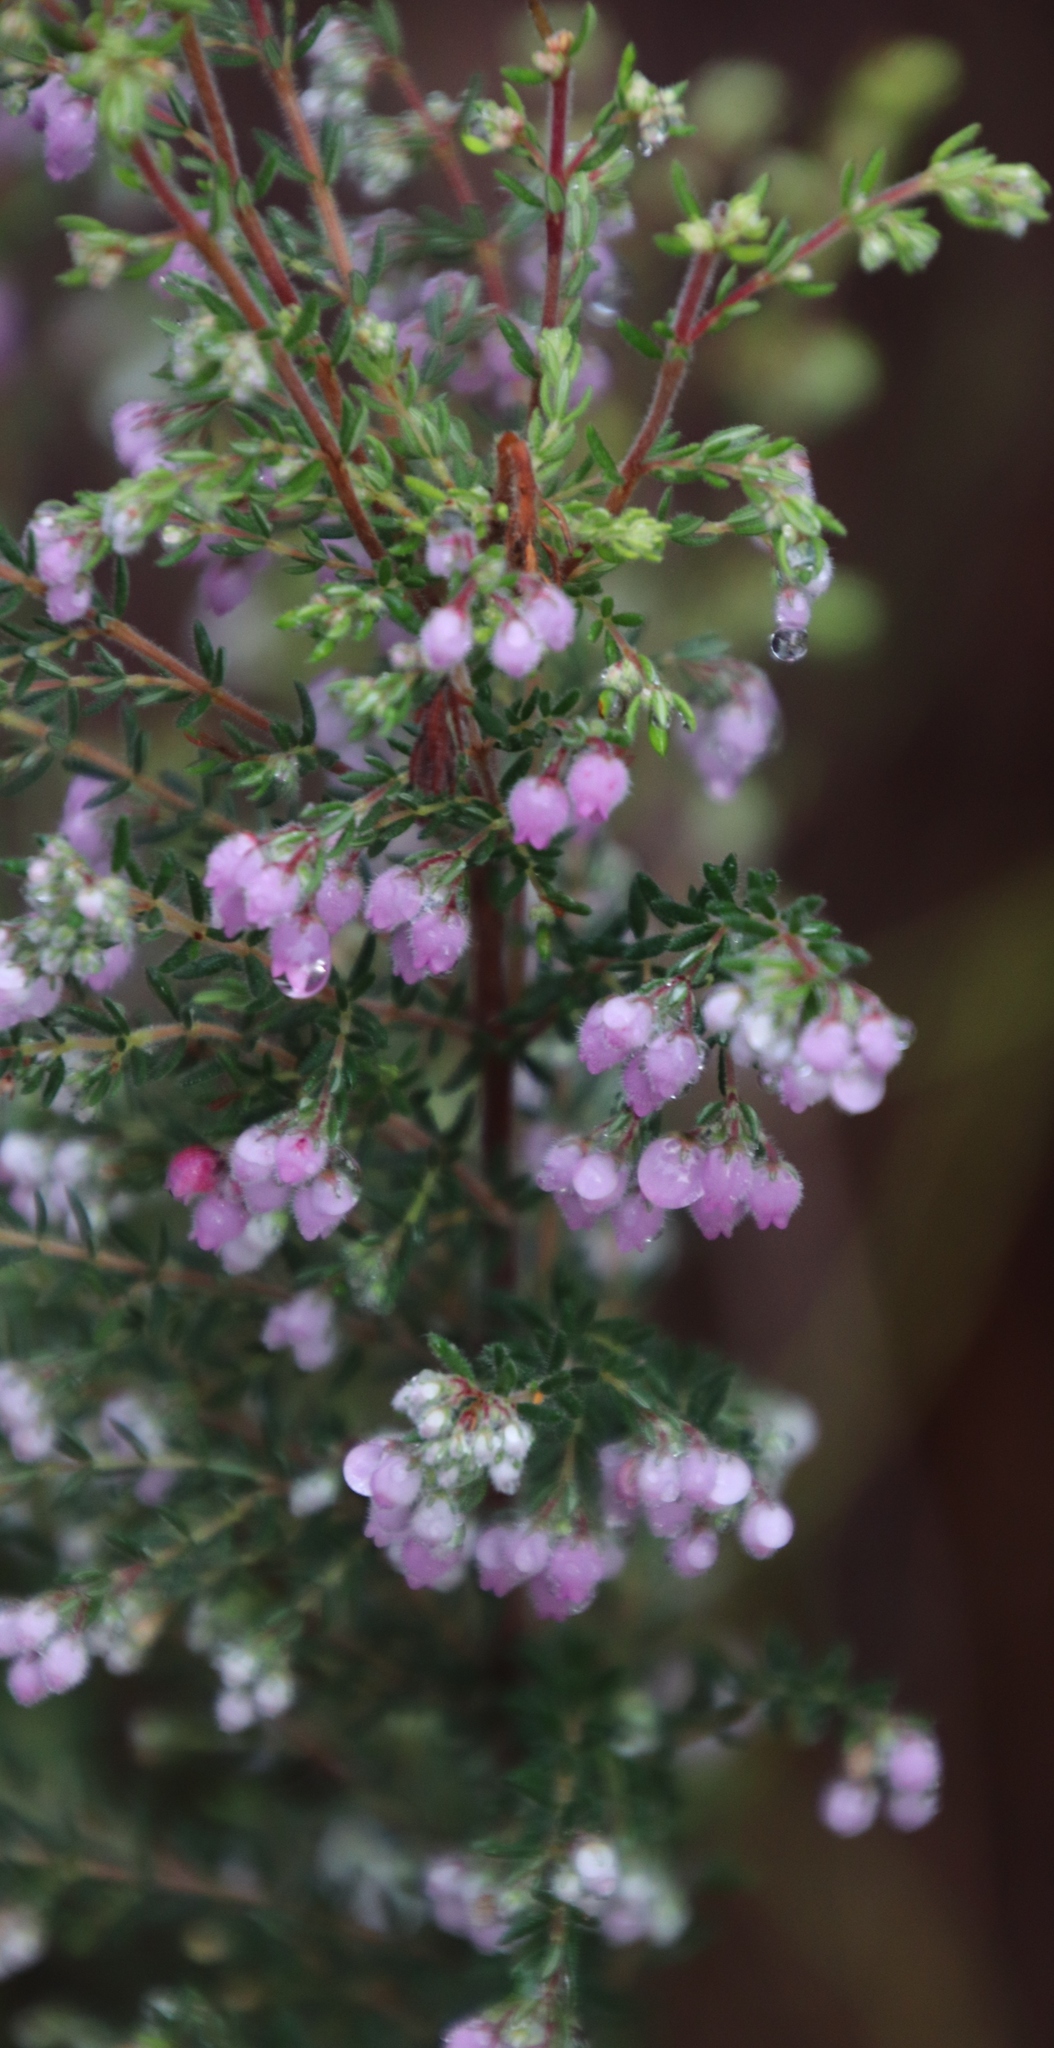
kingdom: Plantae
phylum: Tracheophyta
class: Magnoliopsida
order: Ericales
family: Ericaceae
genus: Erica
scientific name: Erica hirtiflora
